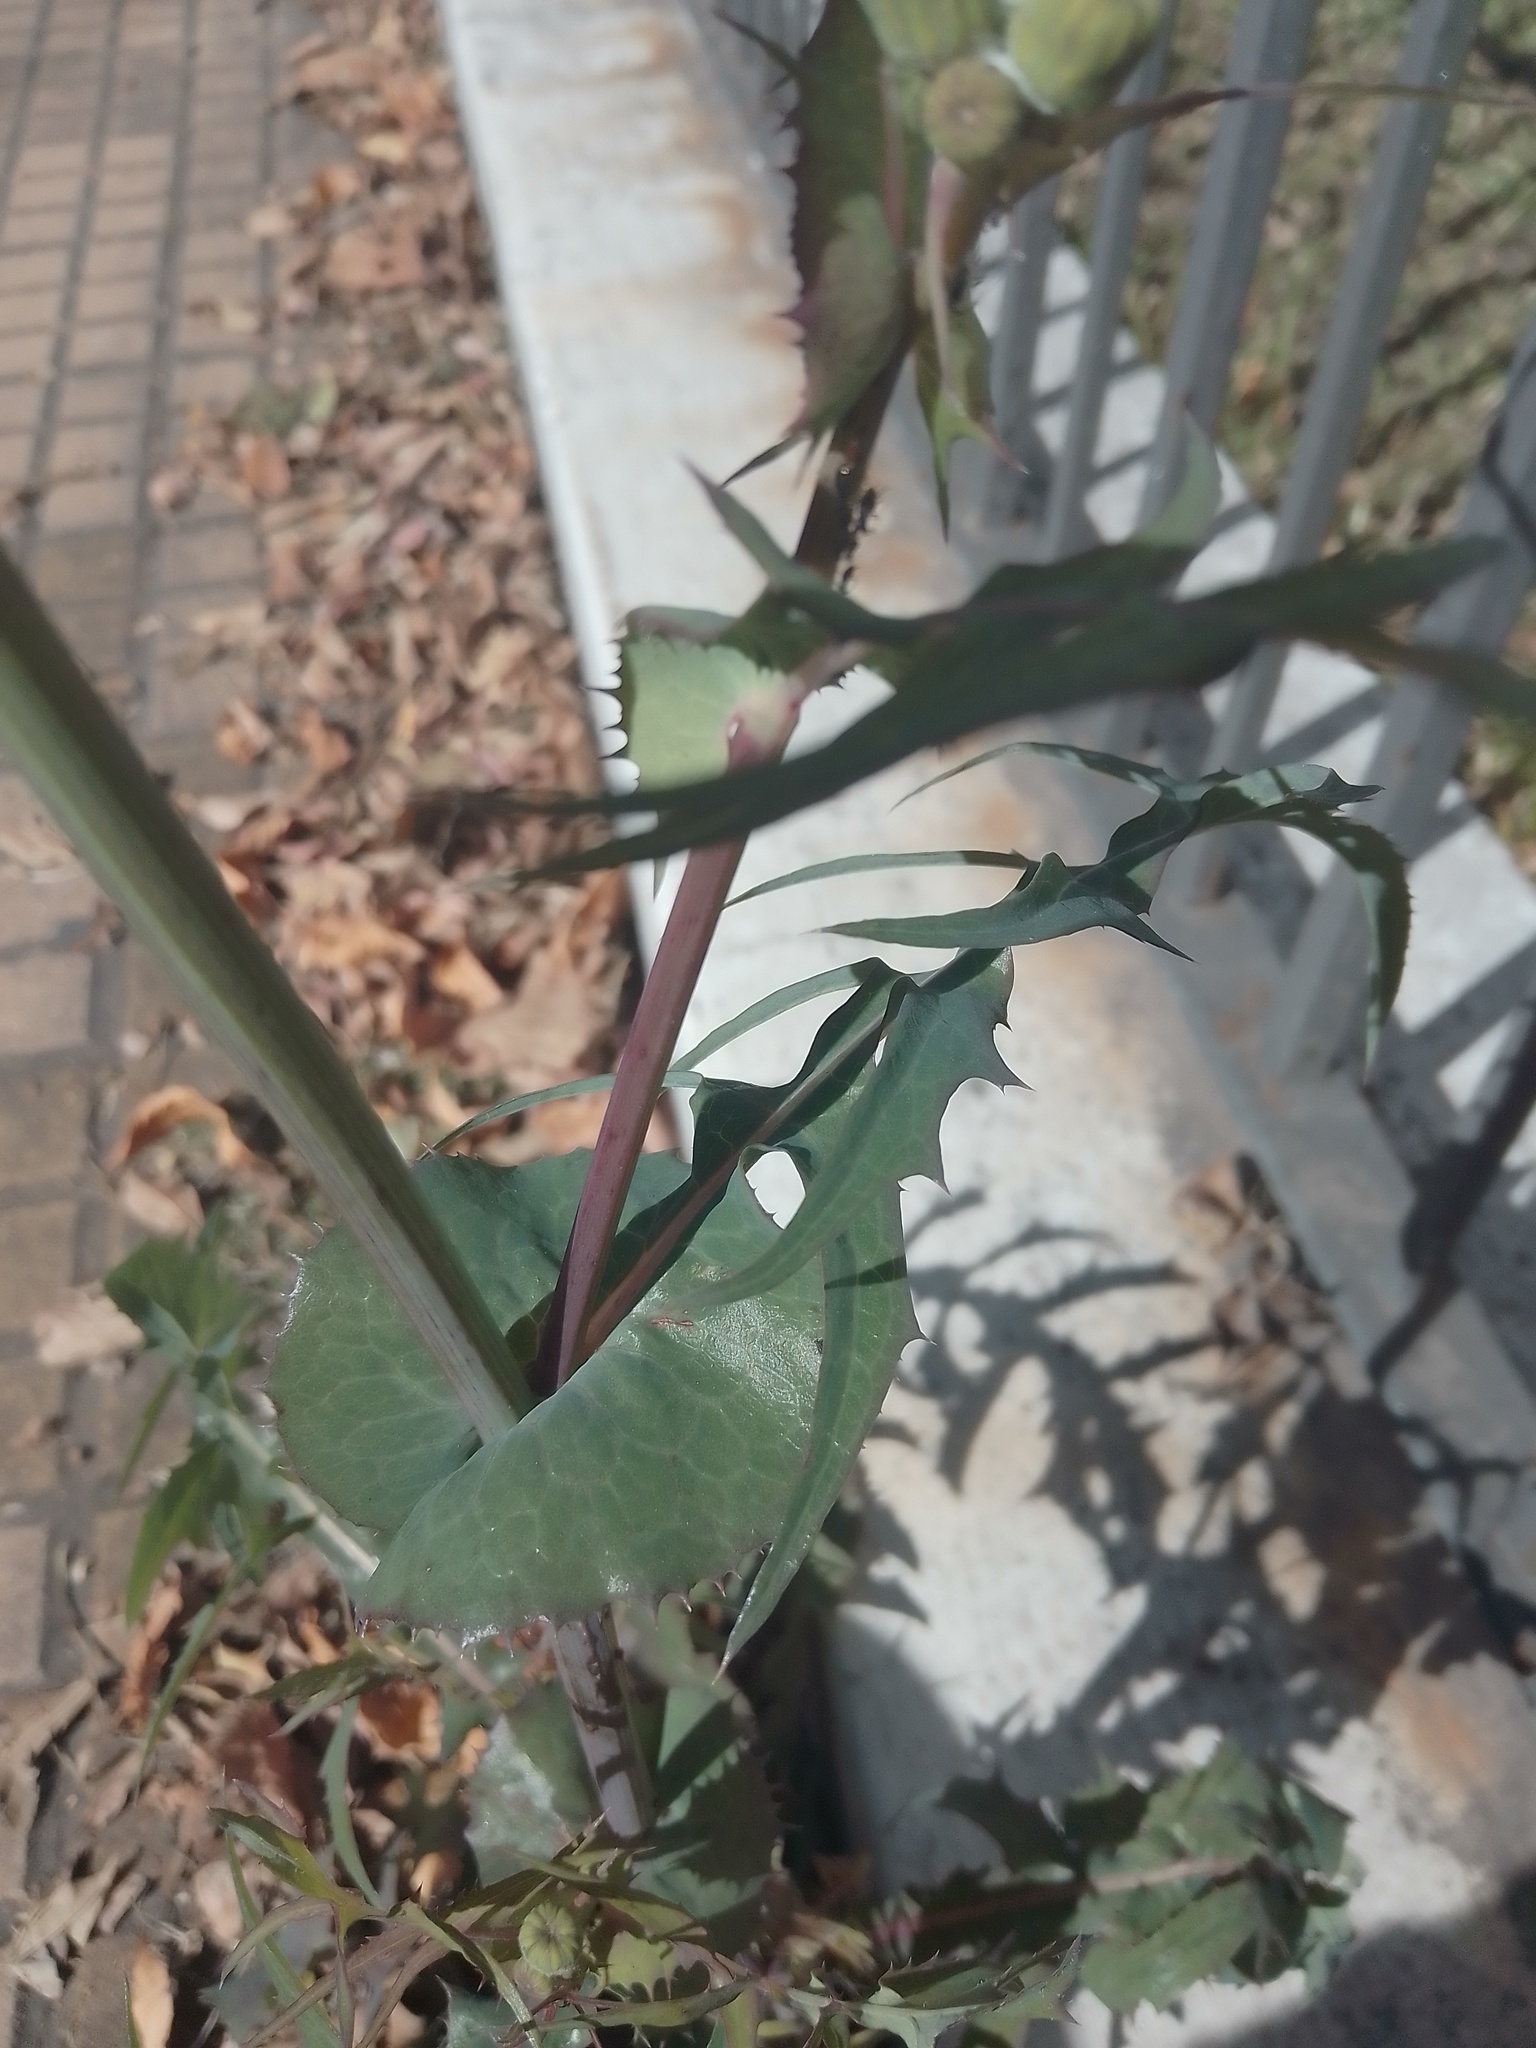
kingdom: Plantae
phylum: Tracheophyta
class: Magnoliopsida
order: Asterales
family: Asteraceae
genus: Sonchus
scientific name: Sonchus oleraceus
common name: Common sowthistle
